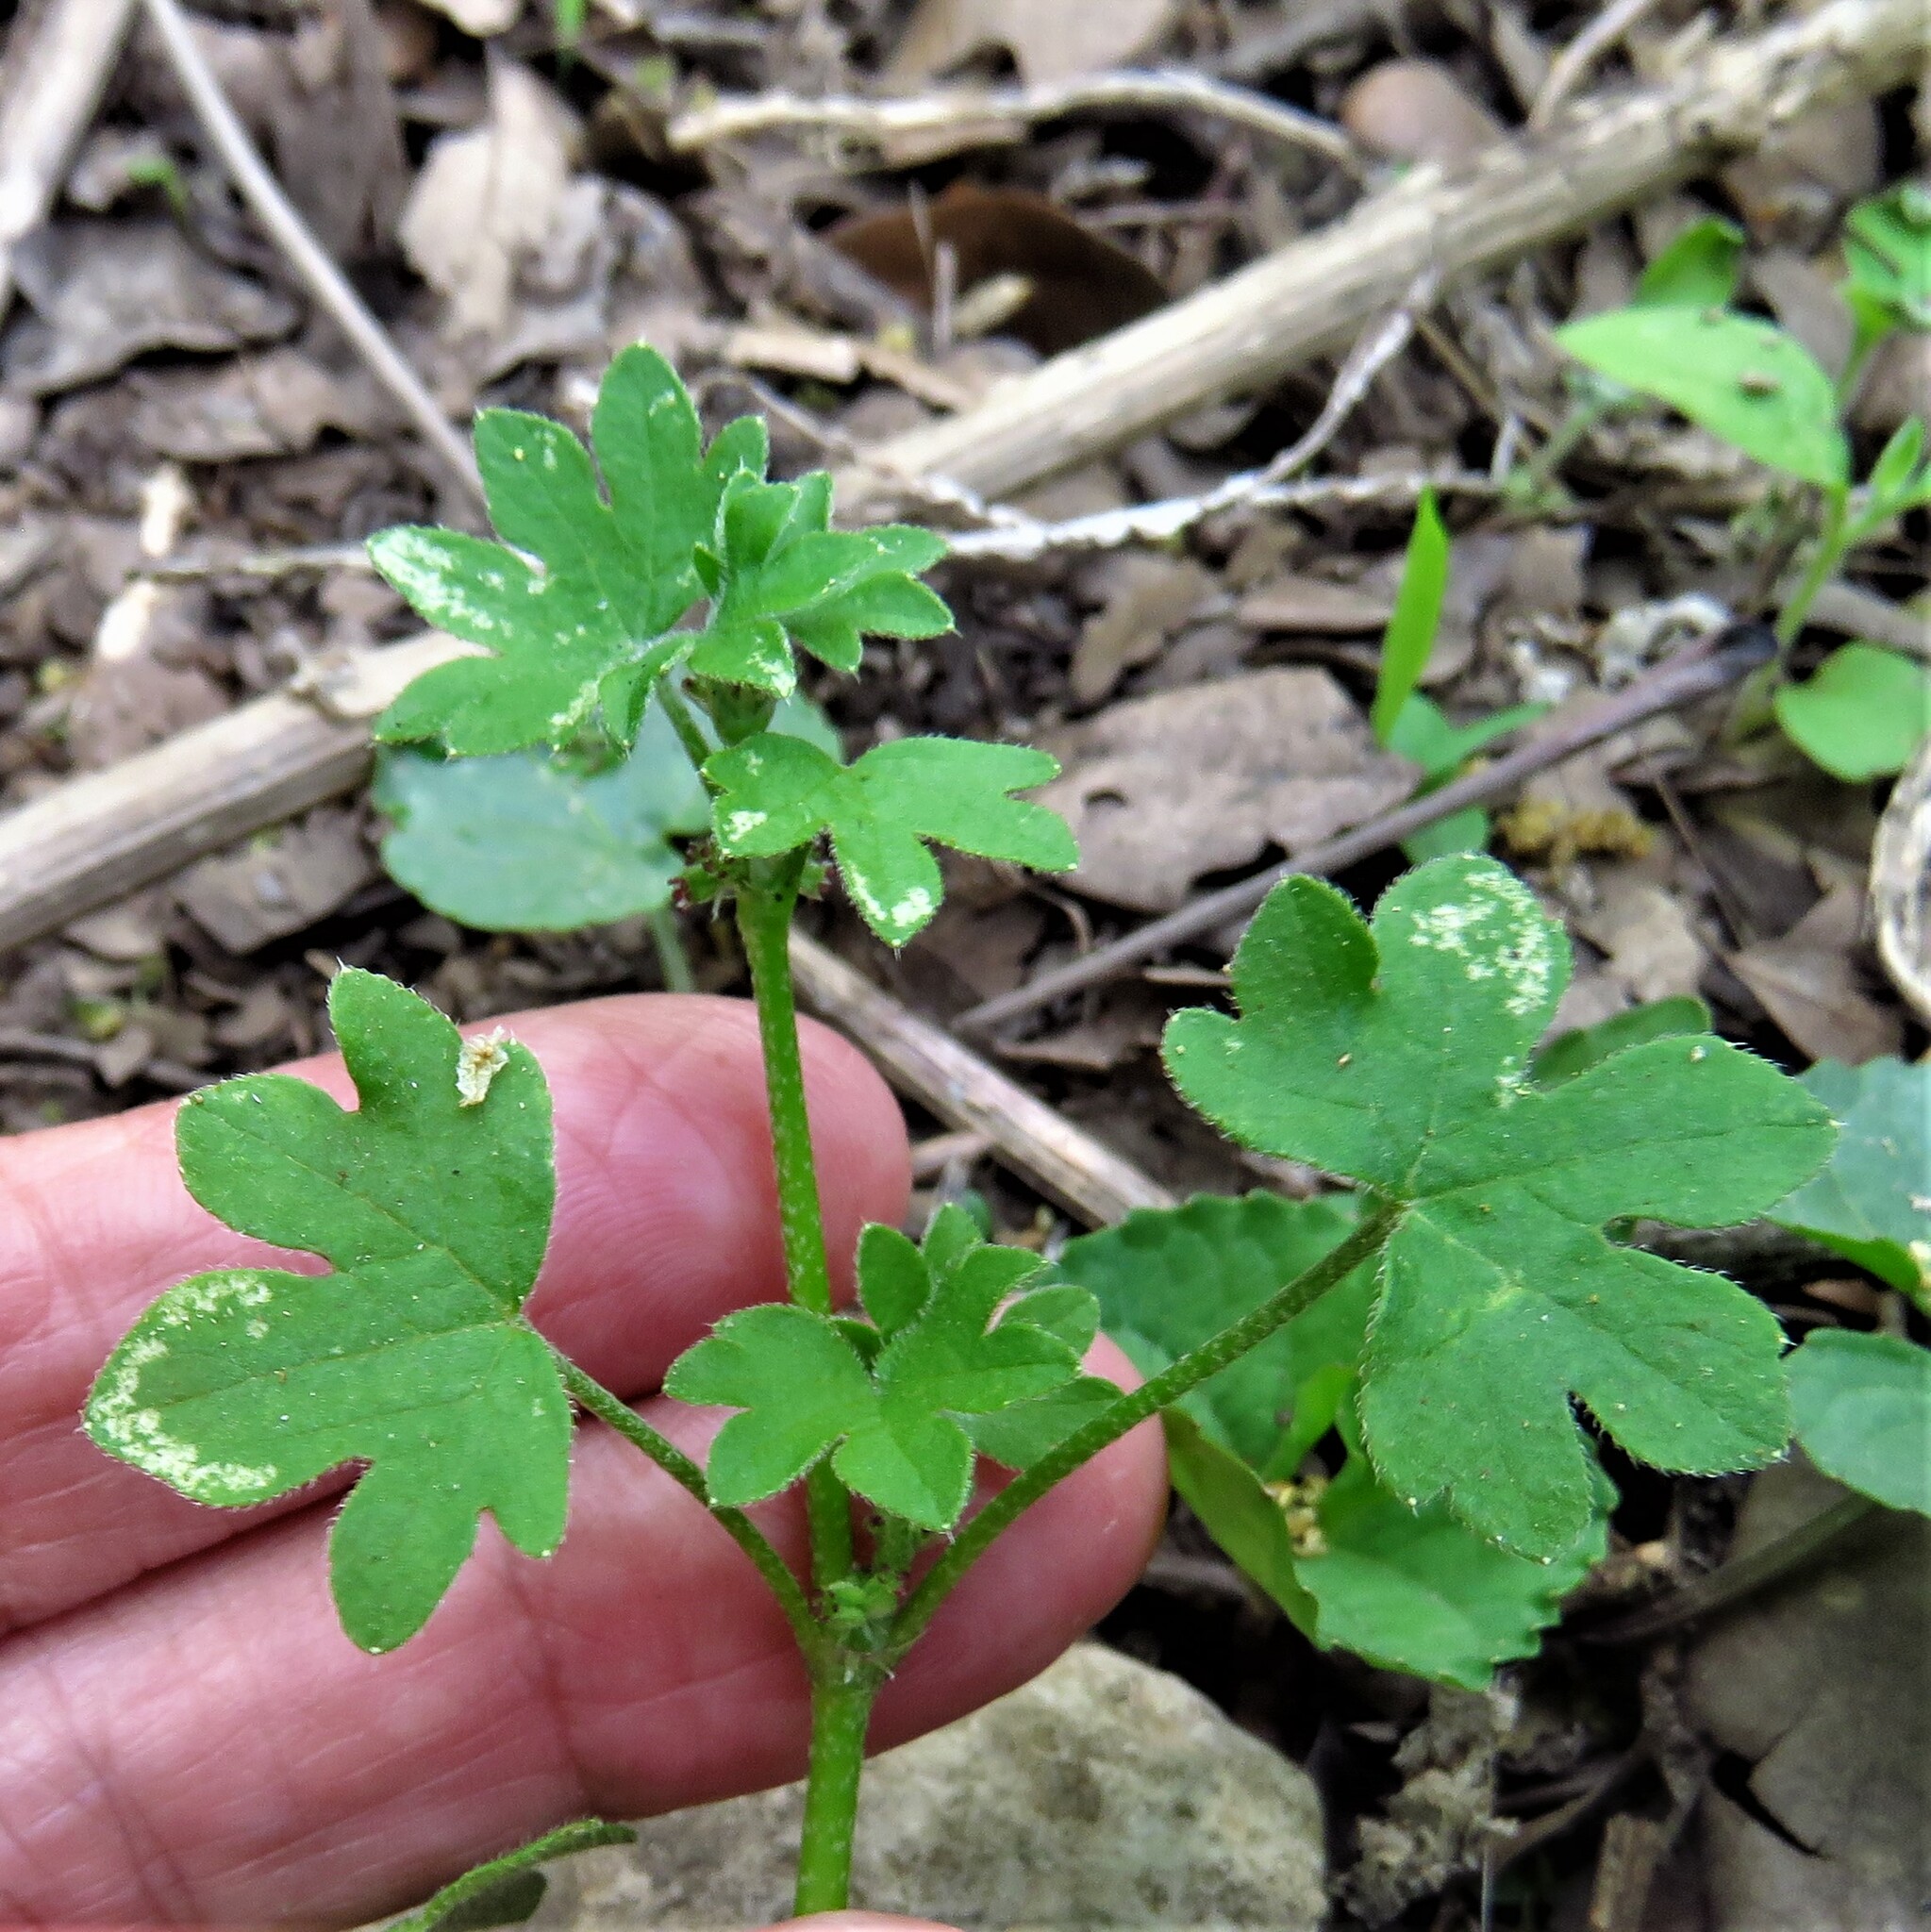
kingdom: Plantae
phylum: Tracheophyta
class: Magnoliopsida
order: Apiales
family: Apiaceae
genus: Bowlesia
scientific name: Bowlesia incana
